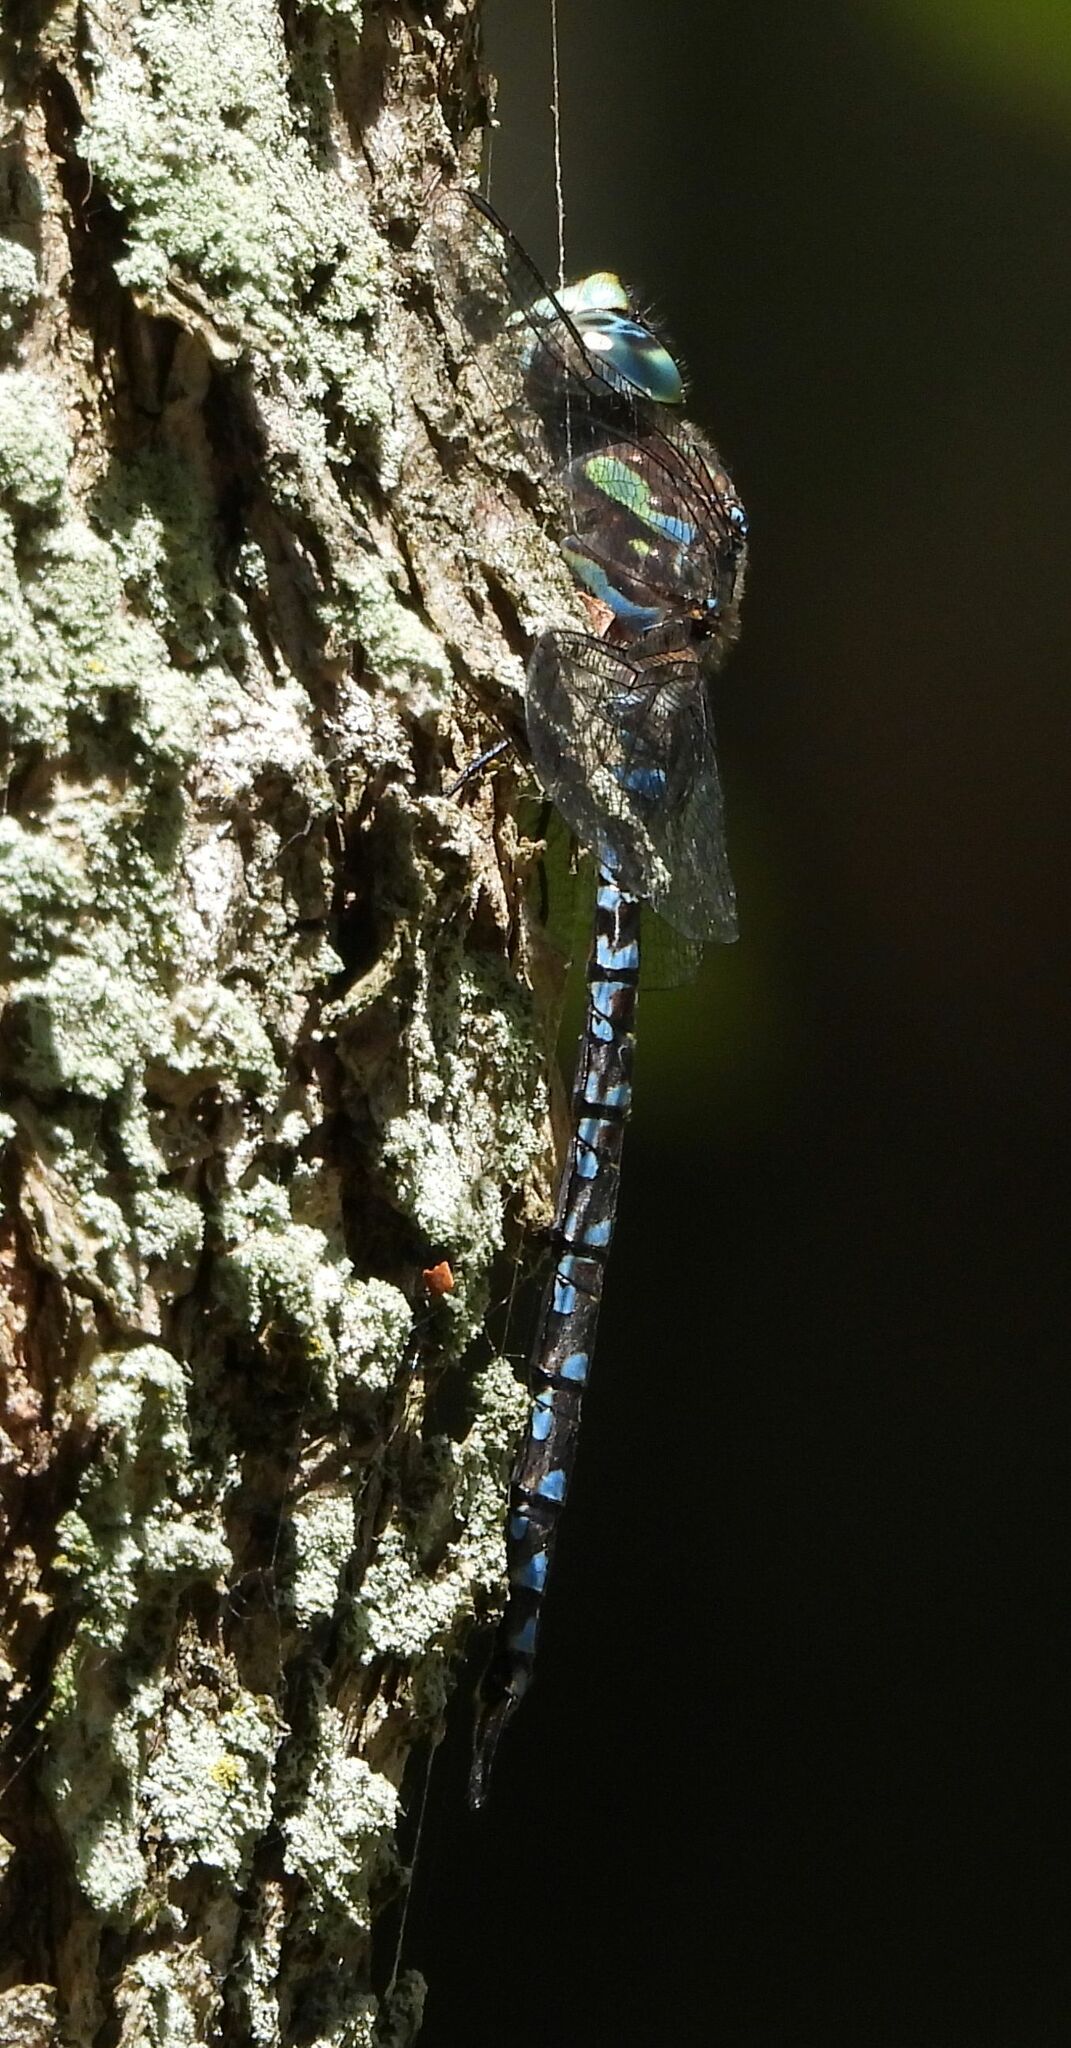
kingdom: Animalia
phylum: Arthropoda
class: Insecta
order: Odonata
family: Aeshnidae
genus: Aeshna
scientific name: Aeshna canadensis
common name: Canada darner
